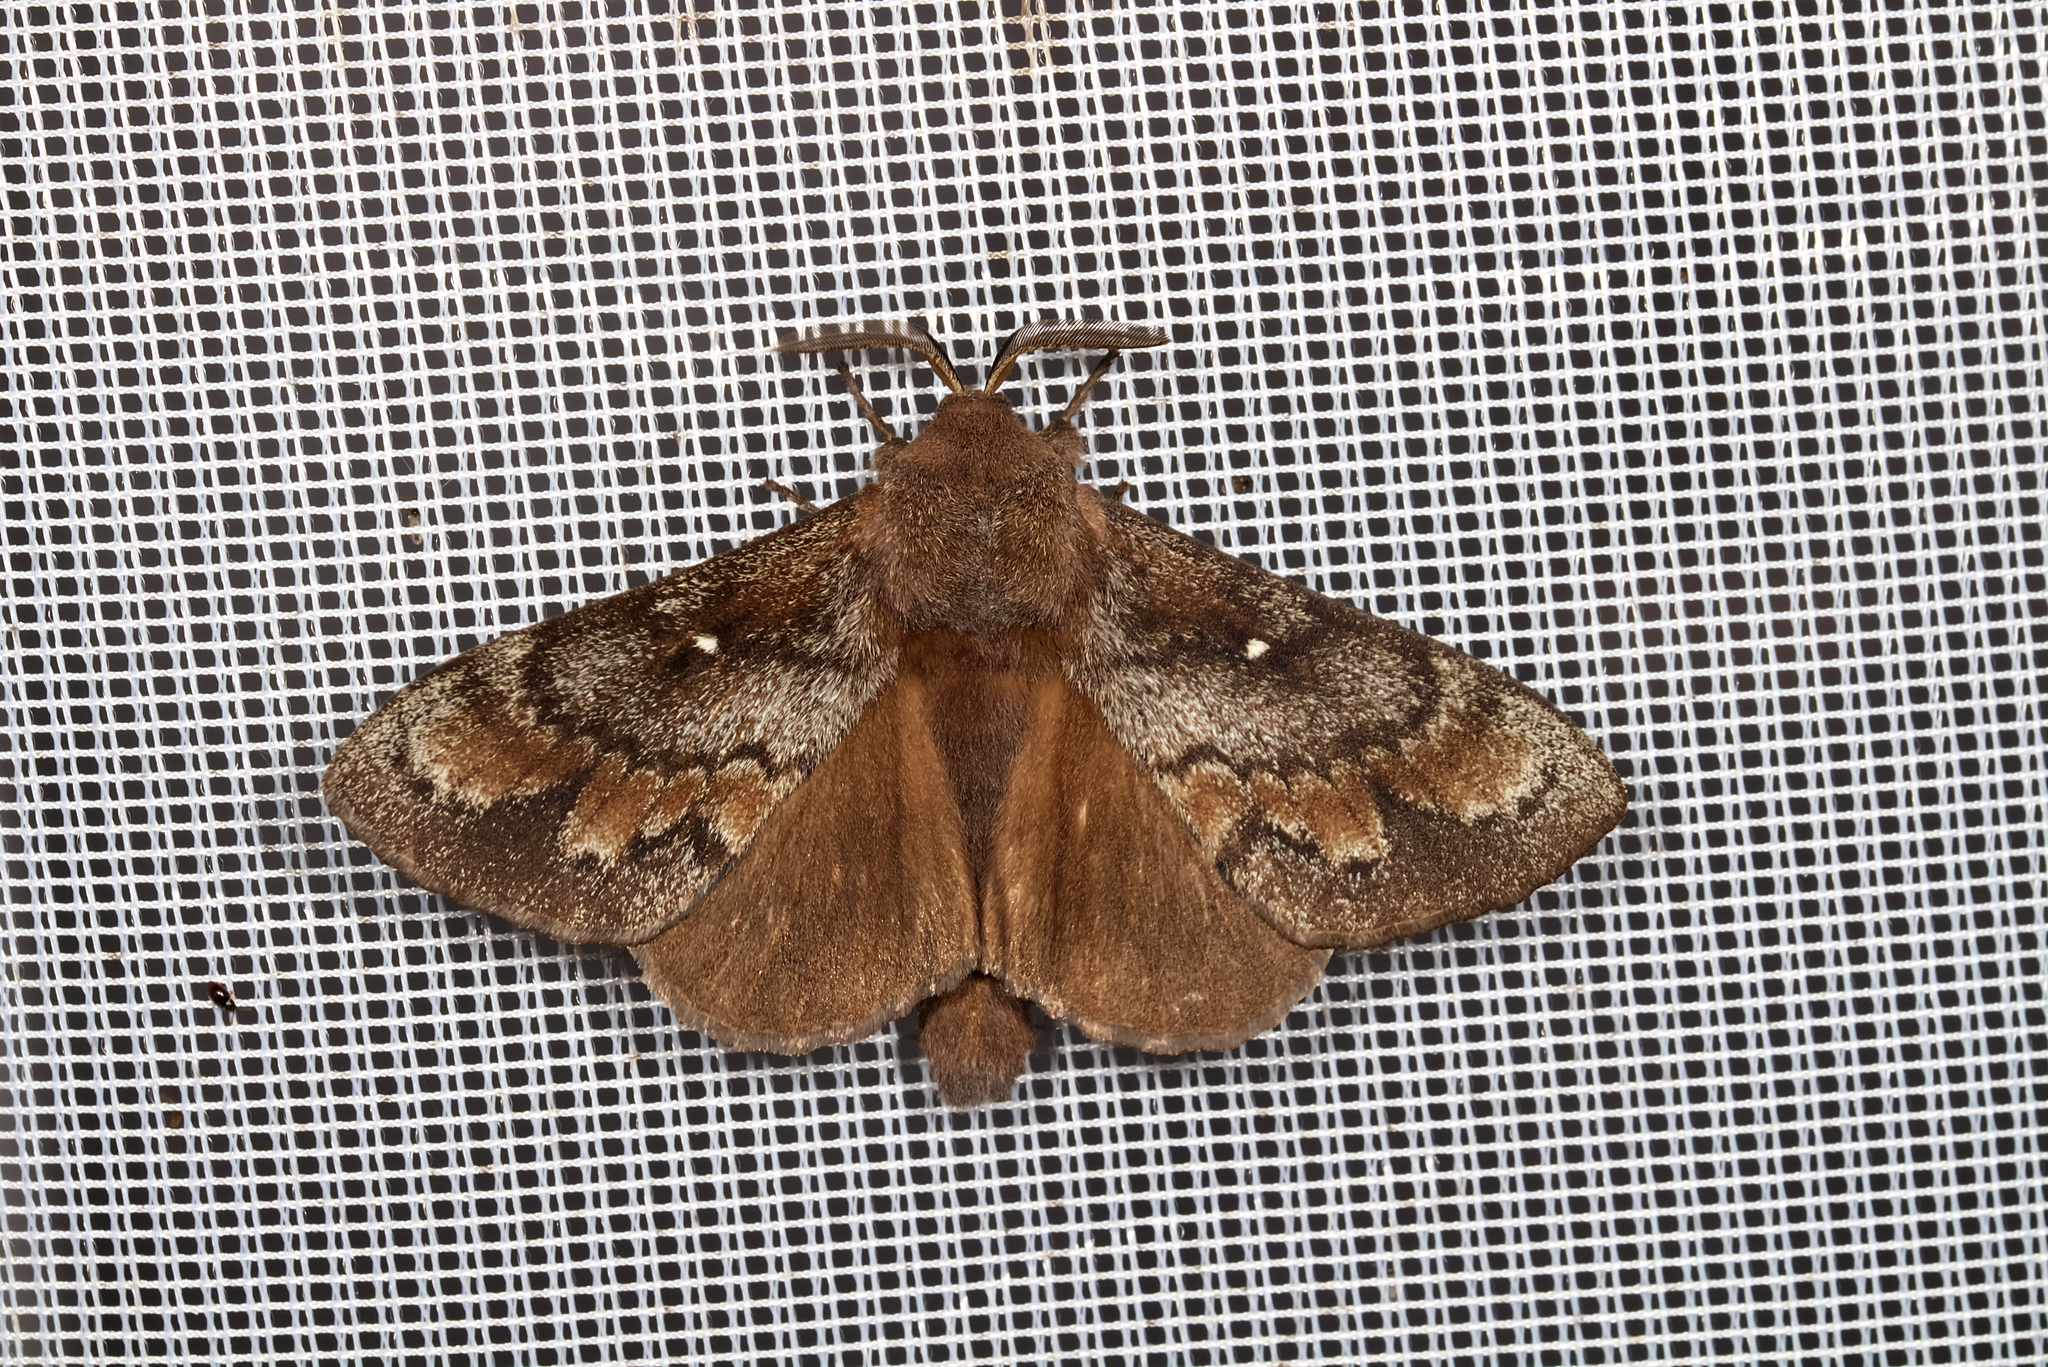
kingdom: Animalia
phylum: Arthropoda
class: Insecta
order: Lepidoptera
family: Lasiocampidae
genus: Dendrolimus
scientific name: Dendrolimus pini
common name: Pine-tree lappet
